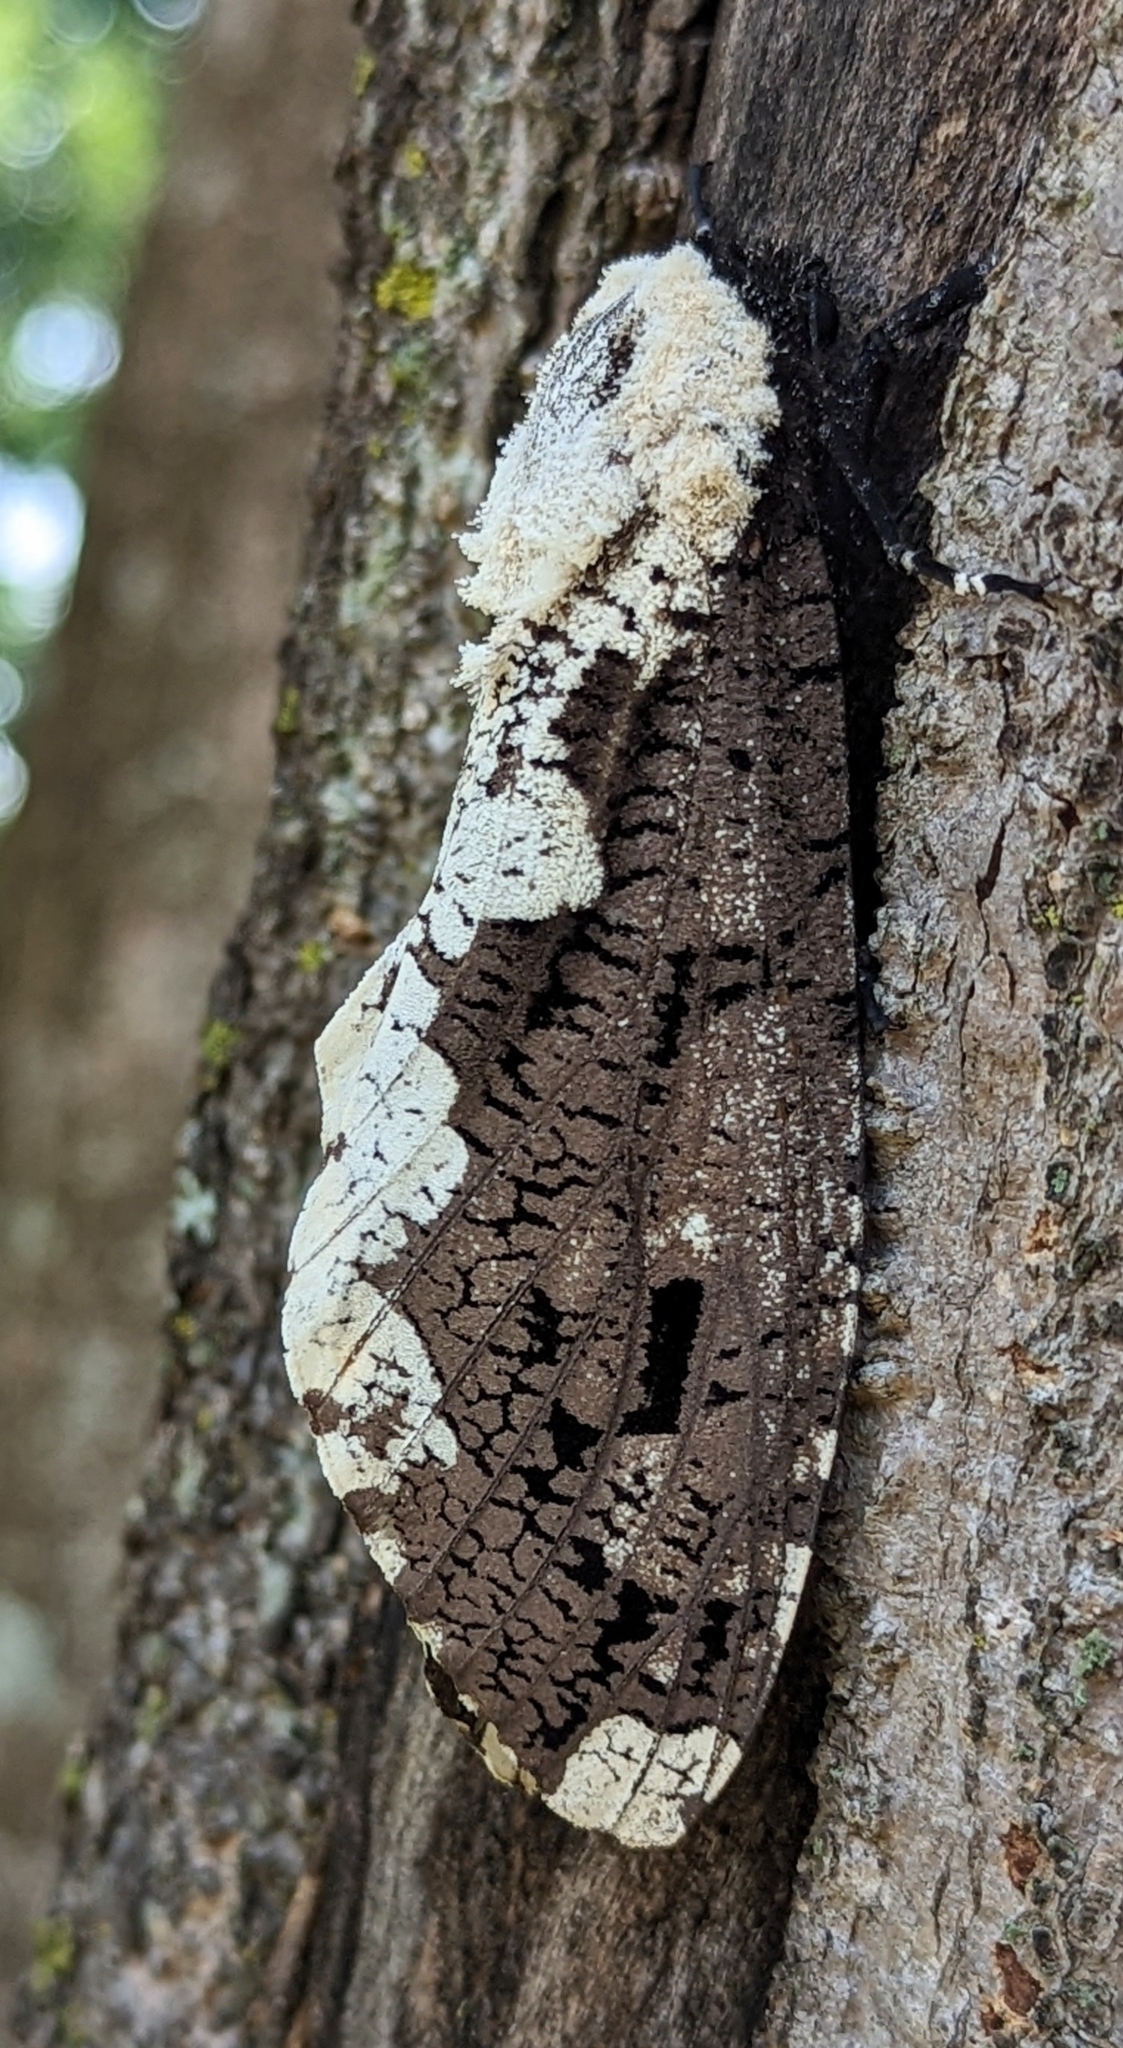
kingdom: Animalia
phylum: Arthropoda
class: Insecta
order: Lepidoptera
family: Cossidae
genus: Xyleutes
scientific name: Xyleutes persona
